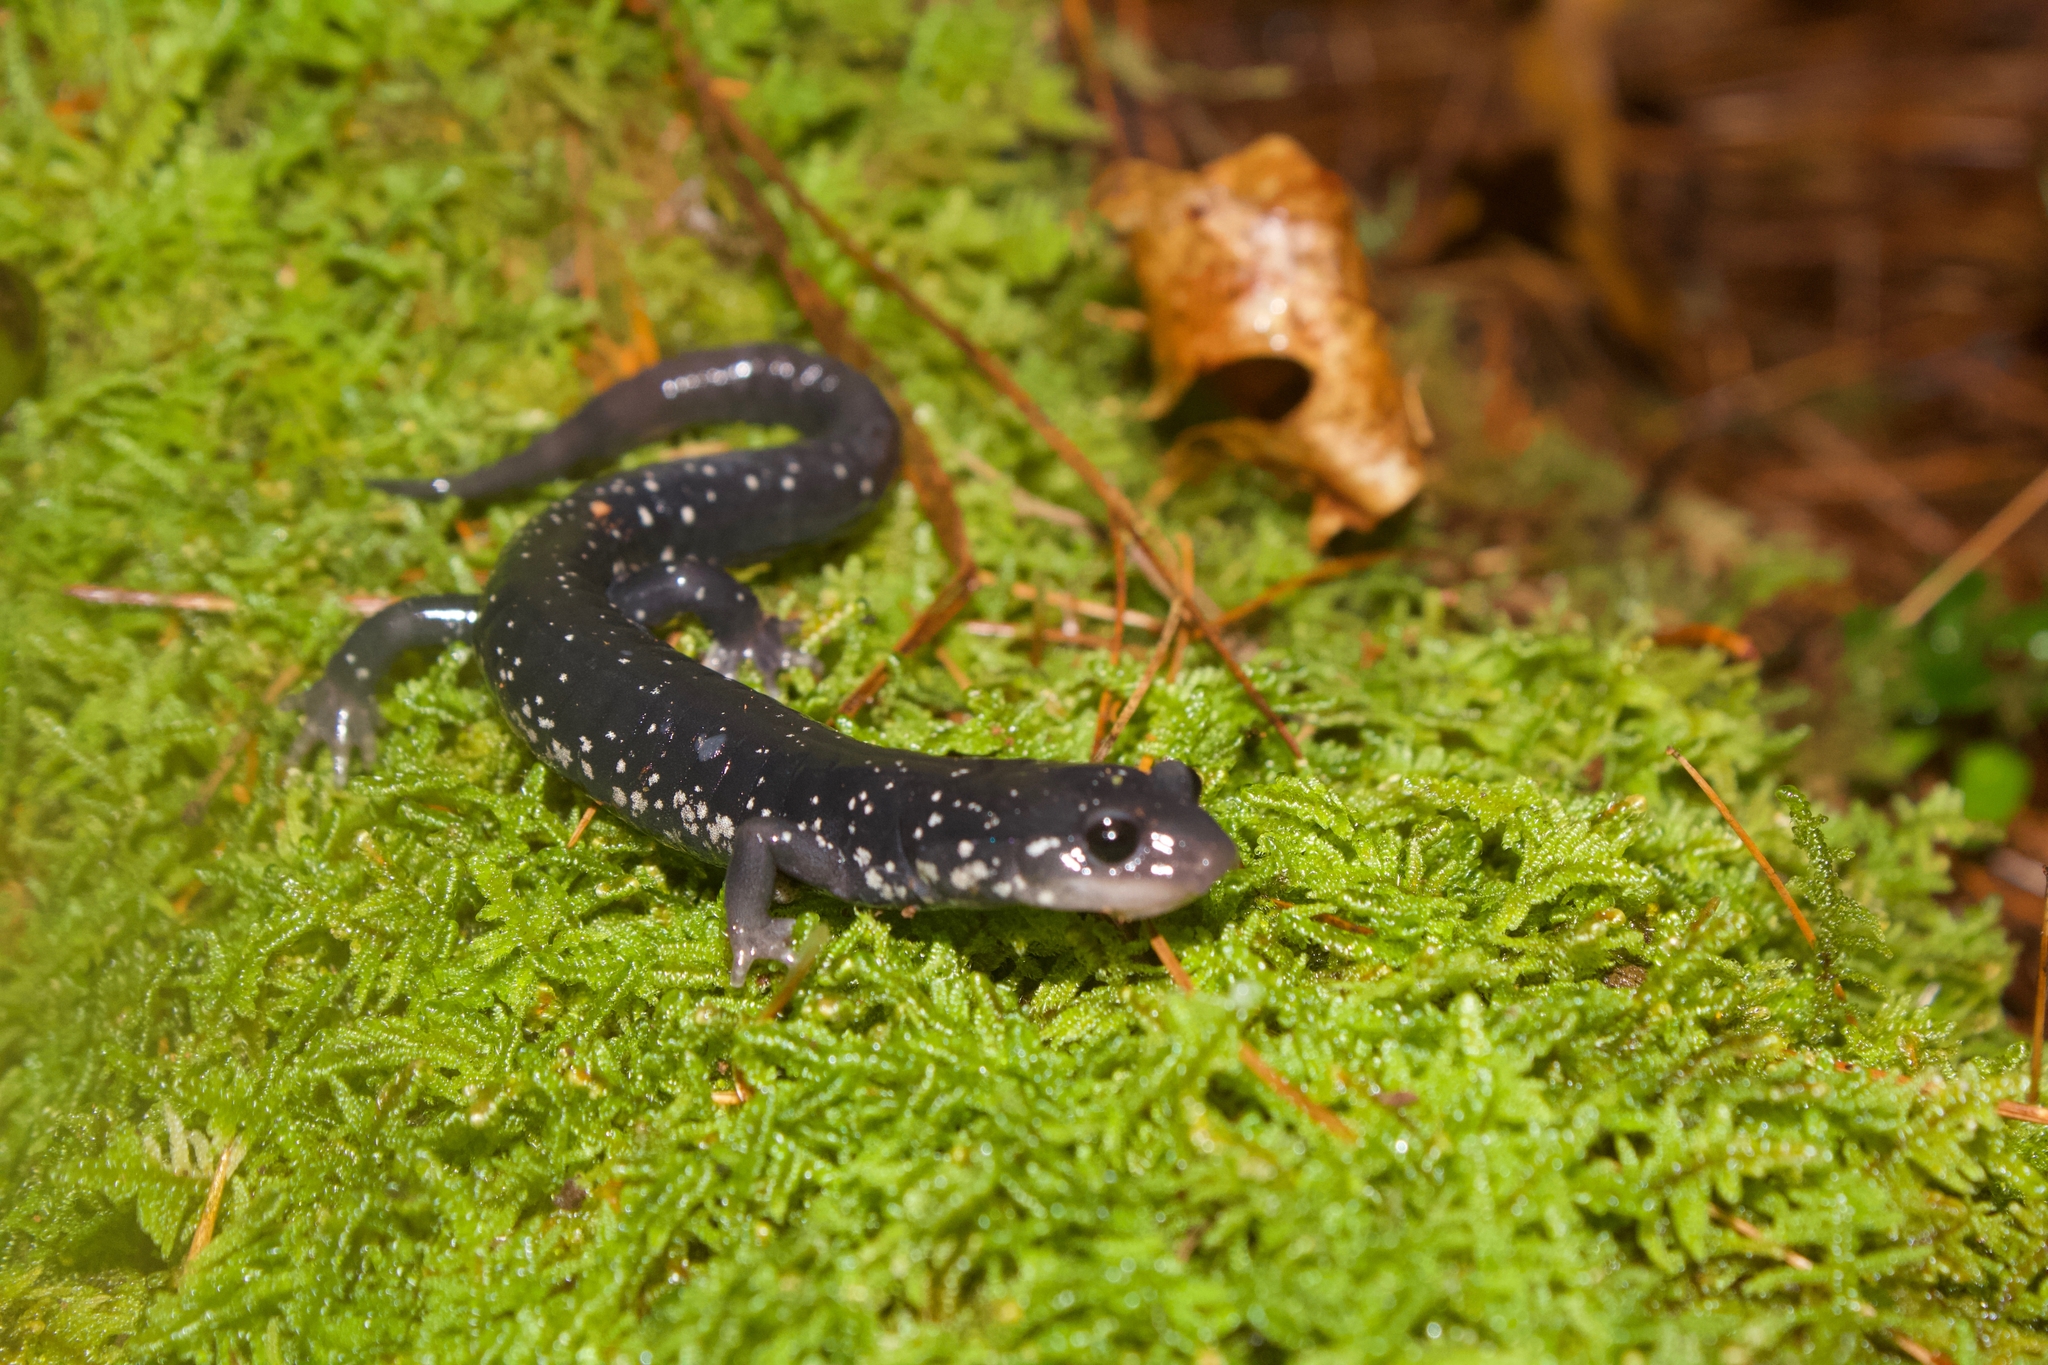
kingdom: Animalia
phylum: Chordata
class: Amphibia
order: Caudata
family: Plethodontidae
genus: Plethodon
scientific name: Plethodon teyahalee
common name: Southern appalachian salamander
